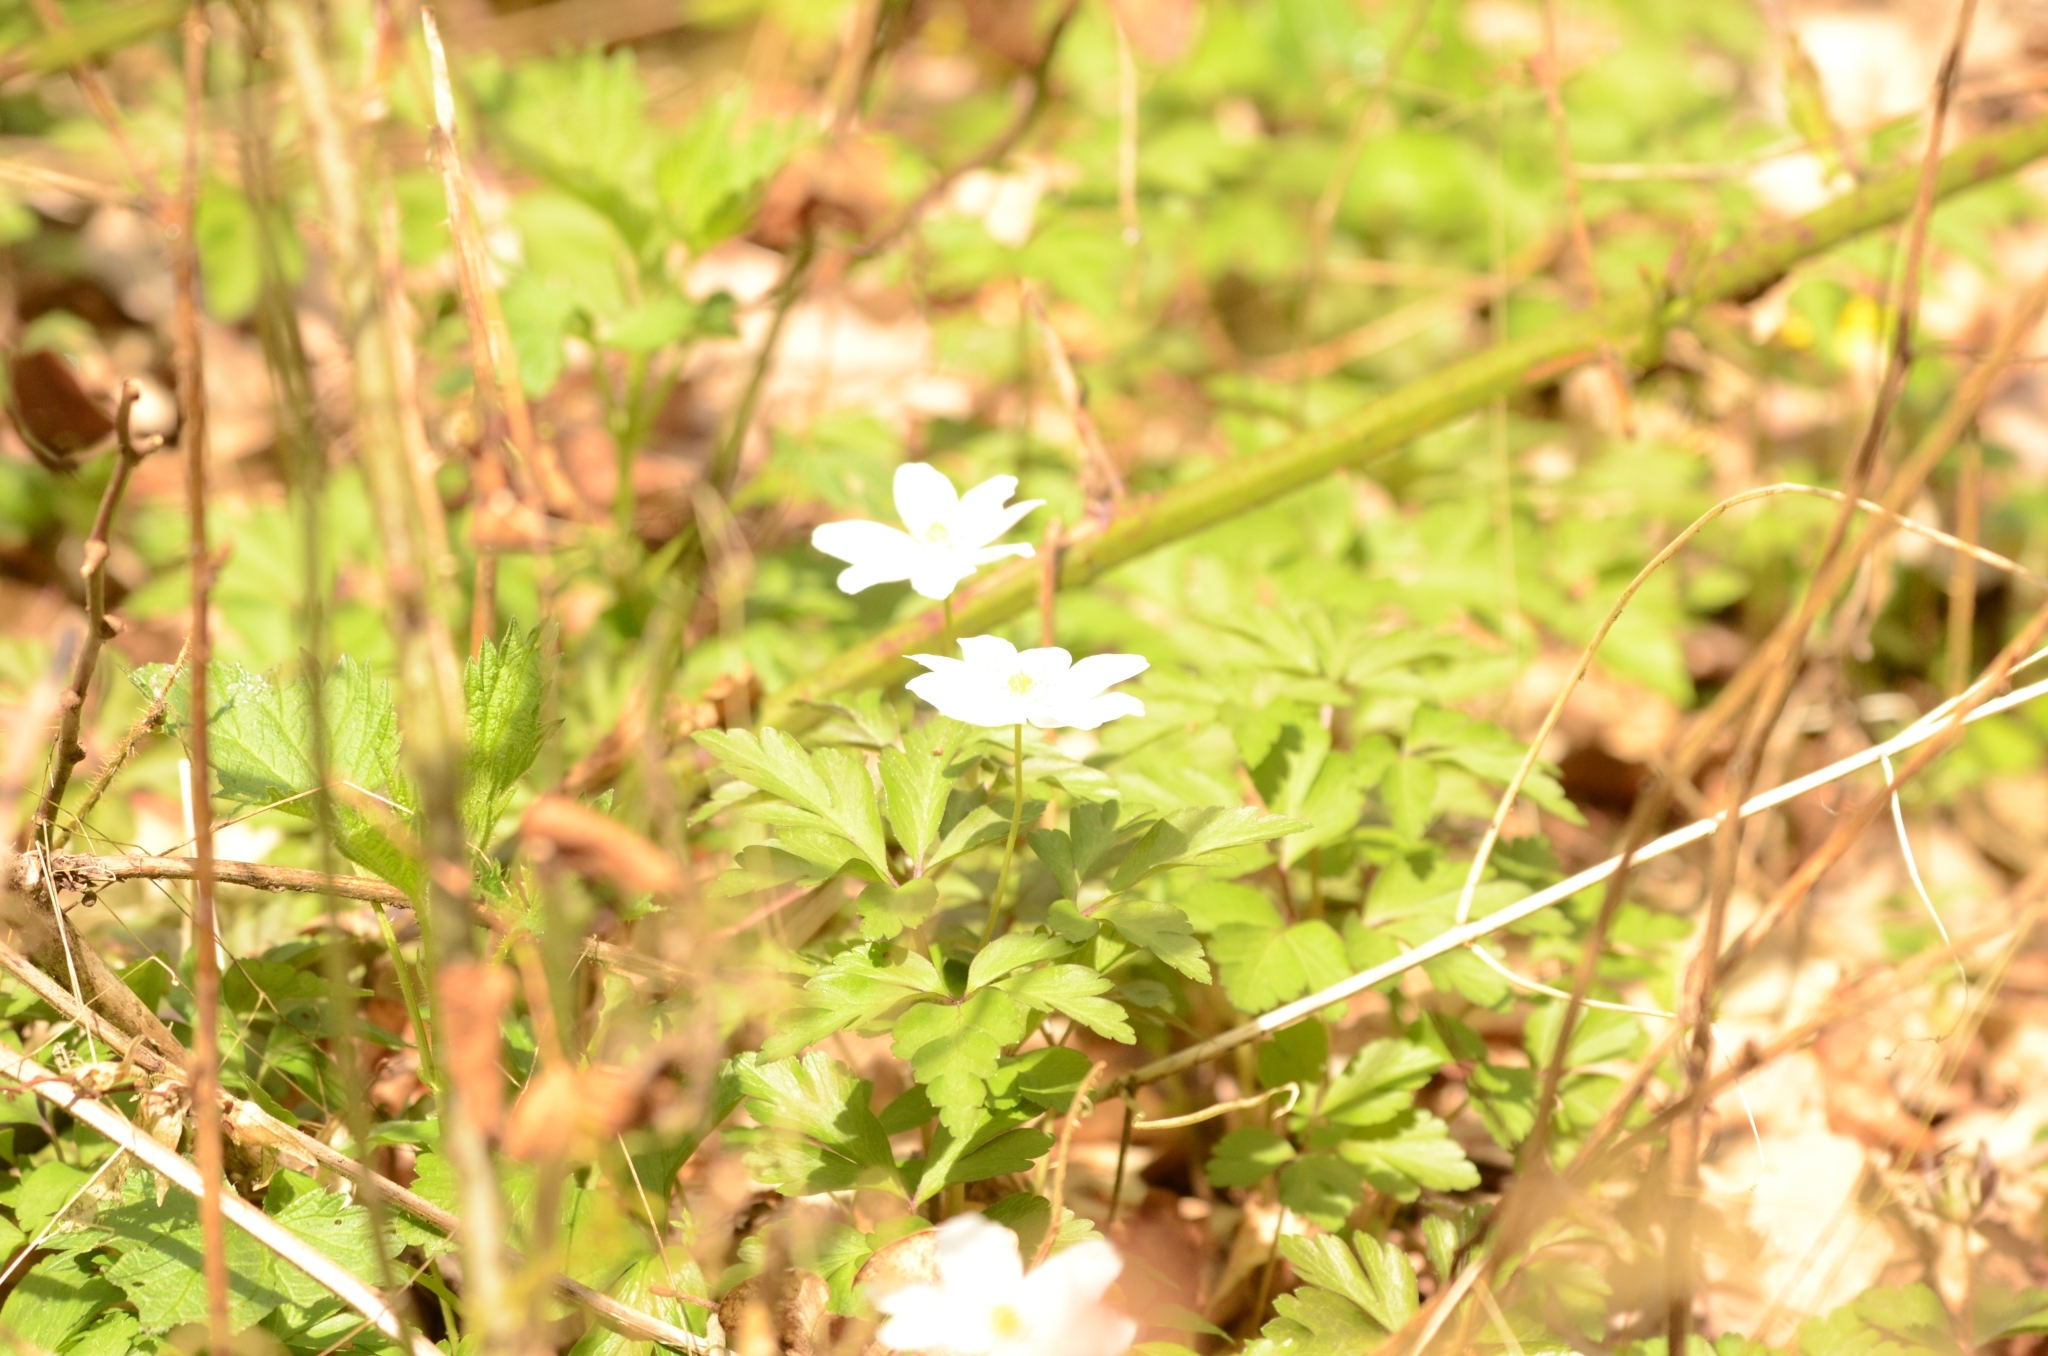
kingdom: Plantae
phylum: Tracheophyta
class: Magnoliopsida
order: Ranunculales
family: Ranunculaceae
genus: Anemone
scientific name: Anemone nemorosa
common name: Wood anemone
